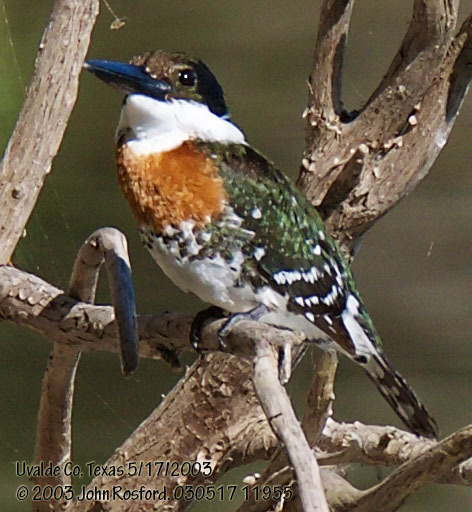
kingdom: Animalia
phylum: Chordata
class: Aves
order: Coraciiformes
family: Alcedinidae
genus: Chloroceryle
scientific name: Chloroceryle americana
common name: Green kingfisher
